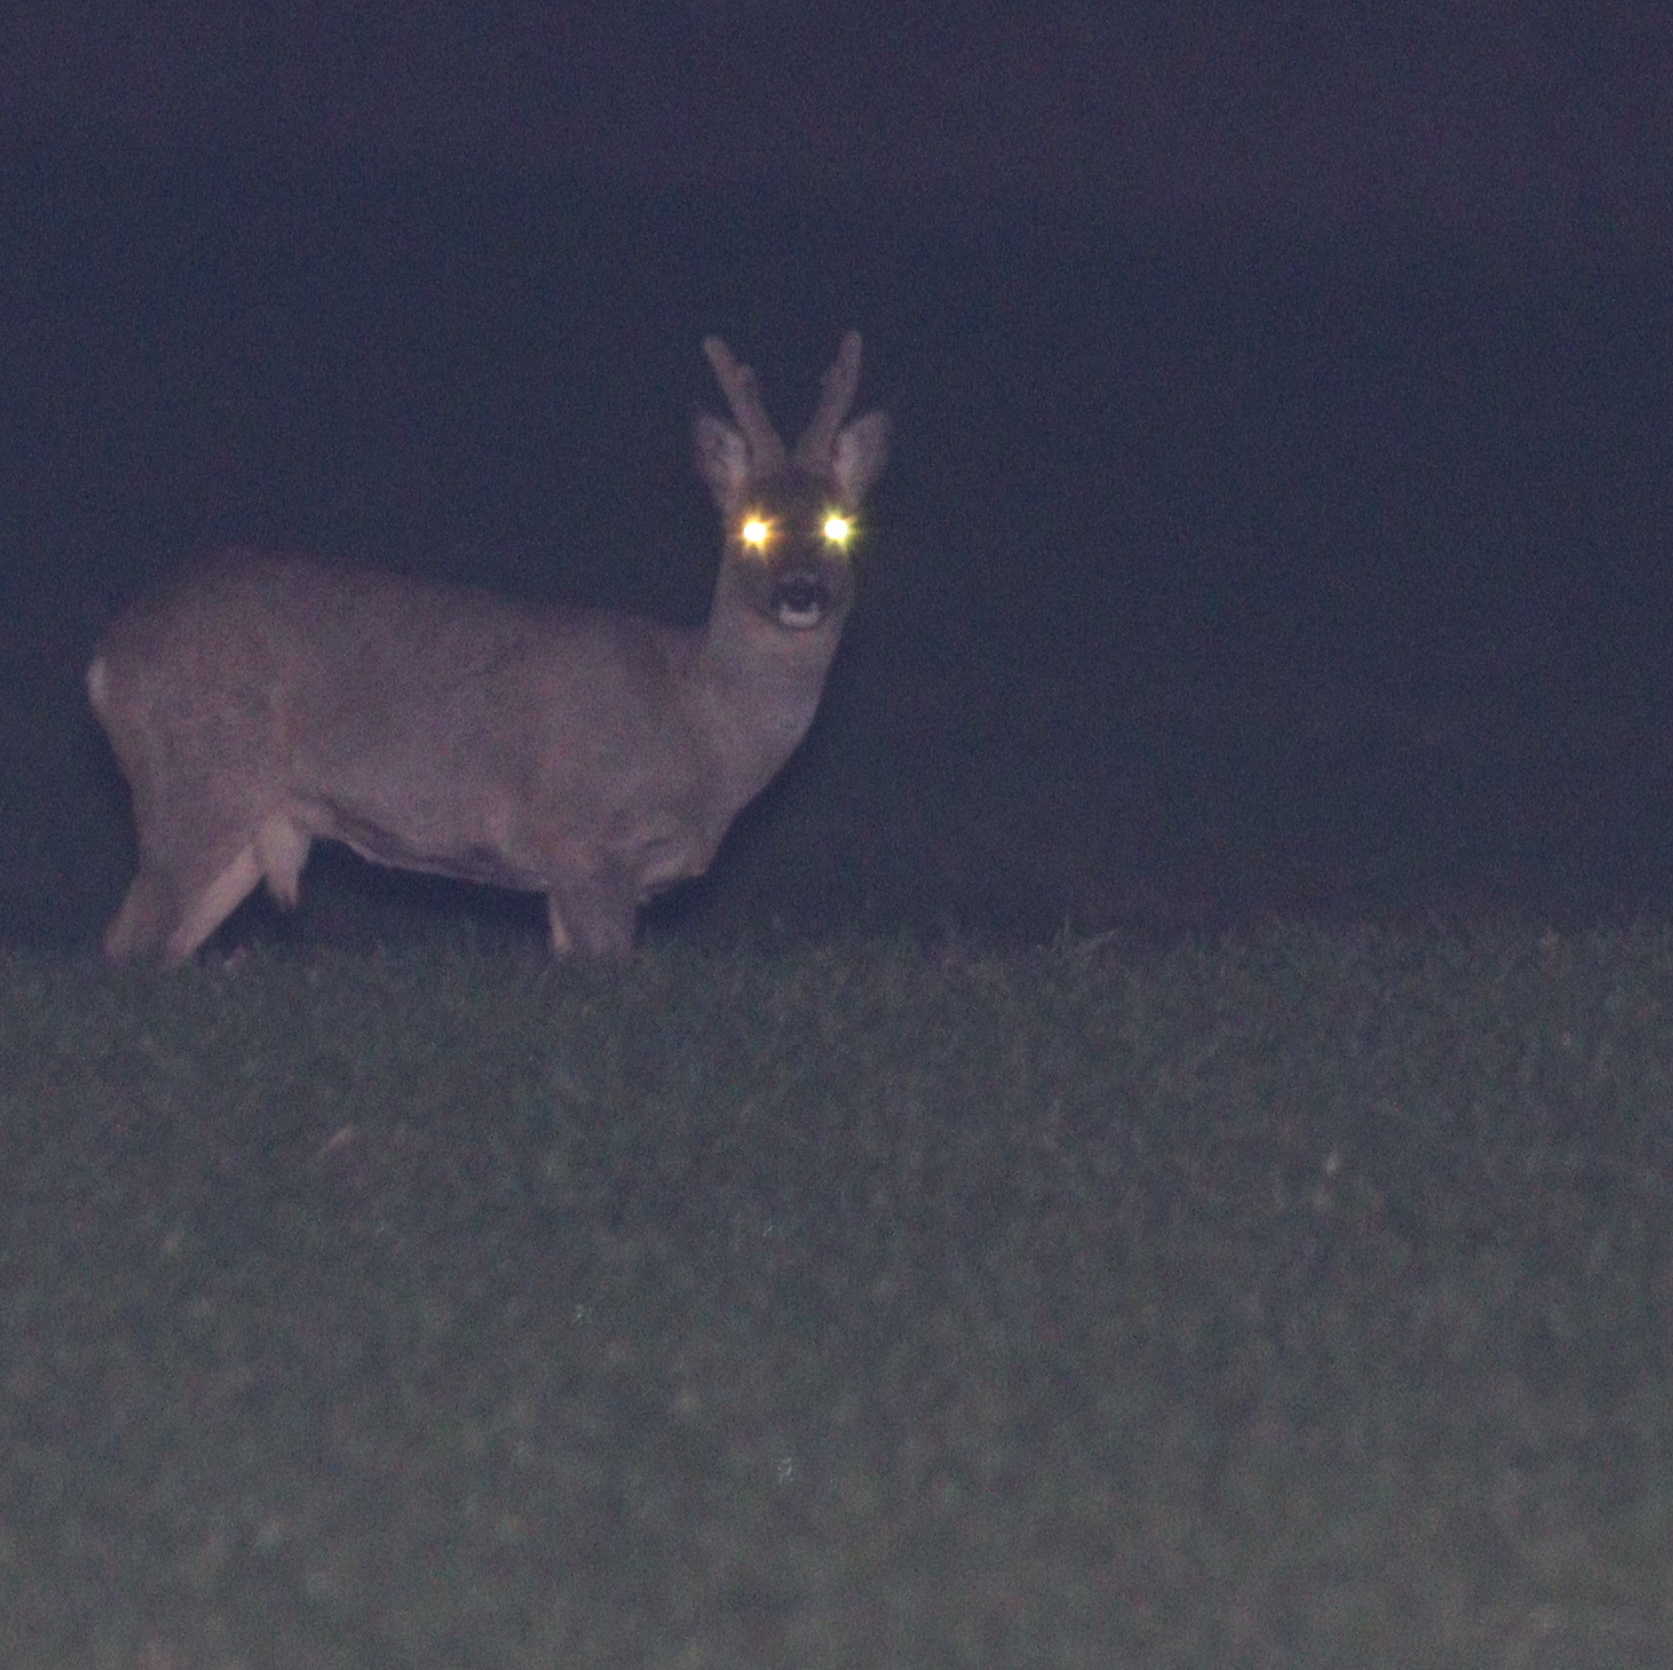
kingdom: Animalia
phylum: Chordata
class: Mammalia
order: Artiodactyla
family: Cervidae
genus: Capreolus
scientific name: Capreolus capreolus
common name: Western roe deer
